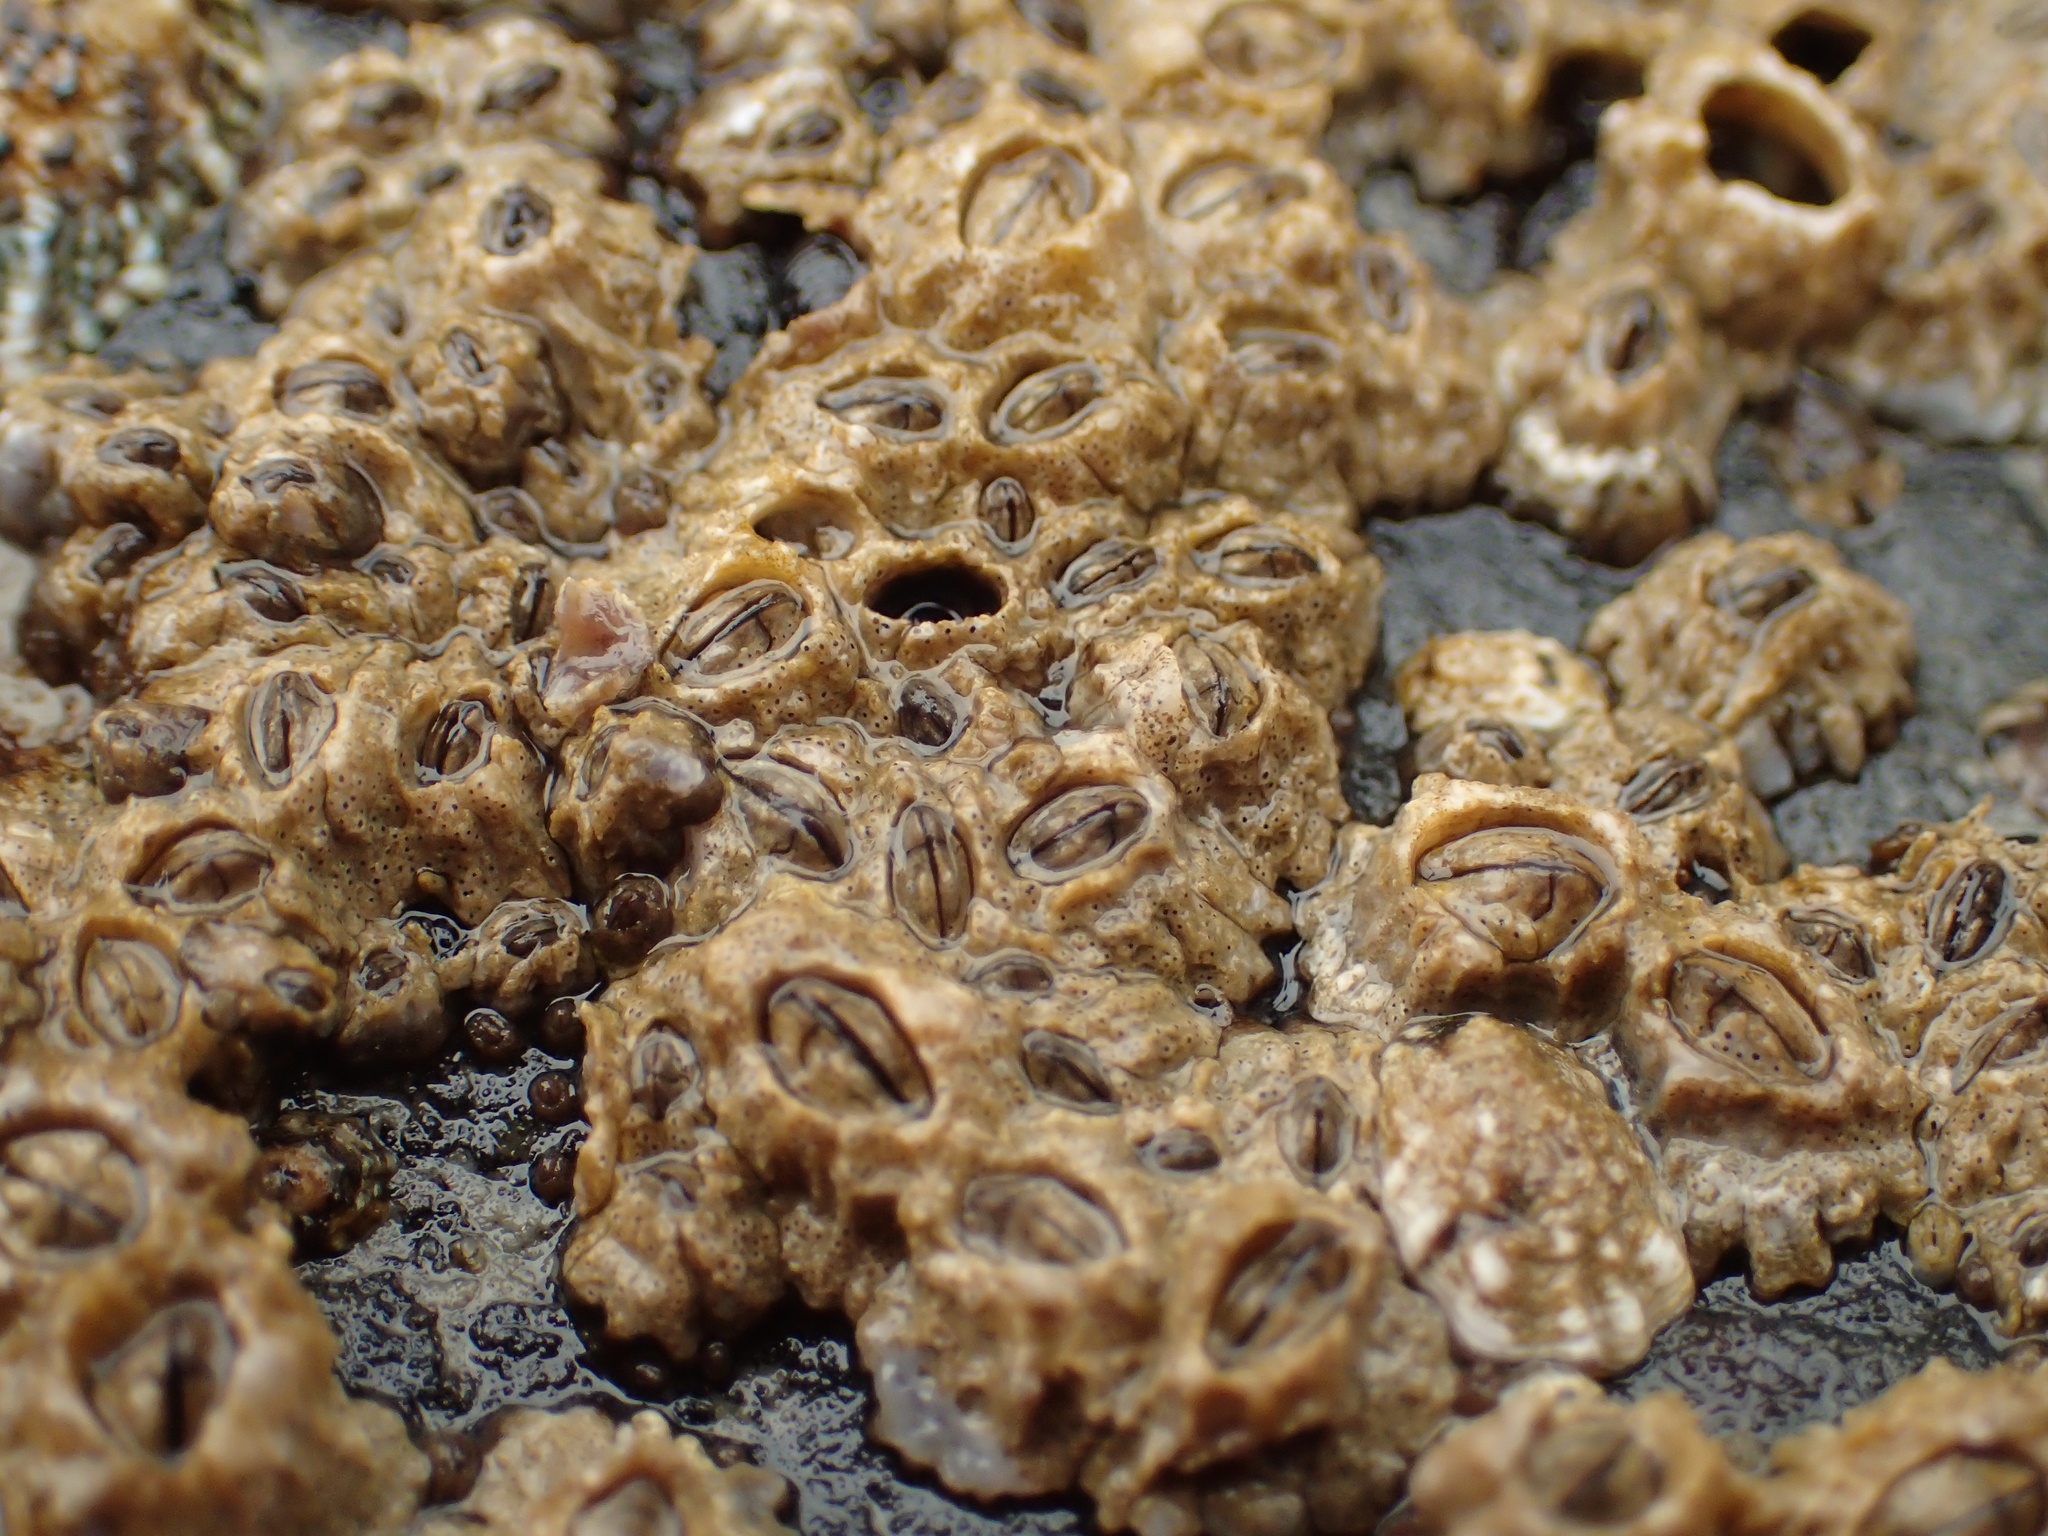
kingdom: Animalia
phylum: Arthropoda
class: Maxillopoda
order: Sessilia
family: Chthamalidae
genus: Chthamalus
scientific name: Chthamalus dalli
